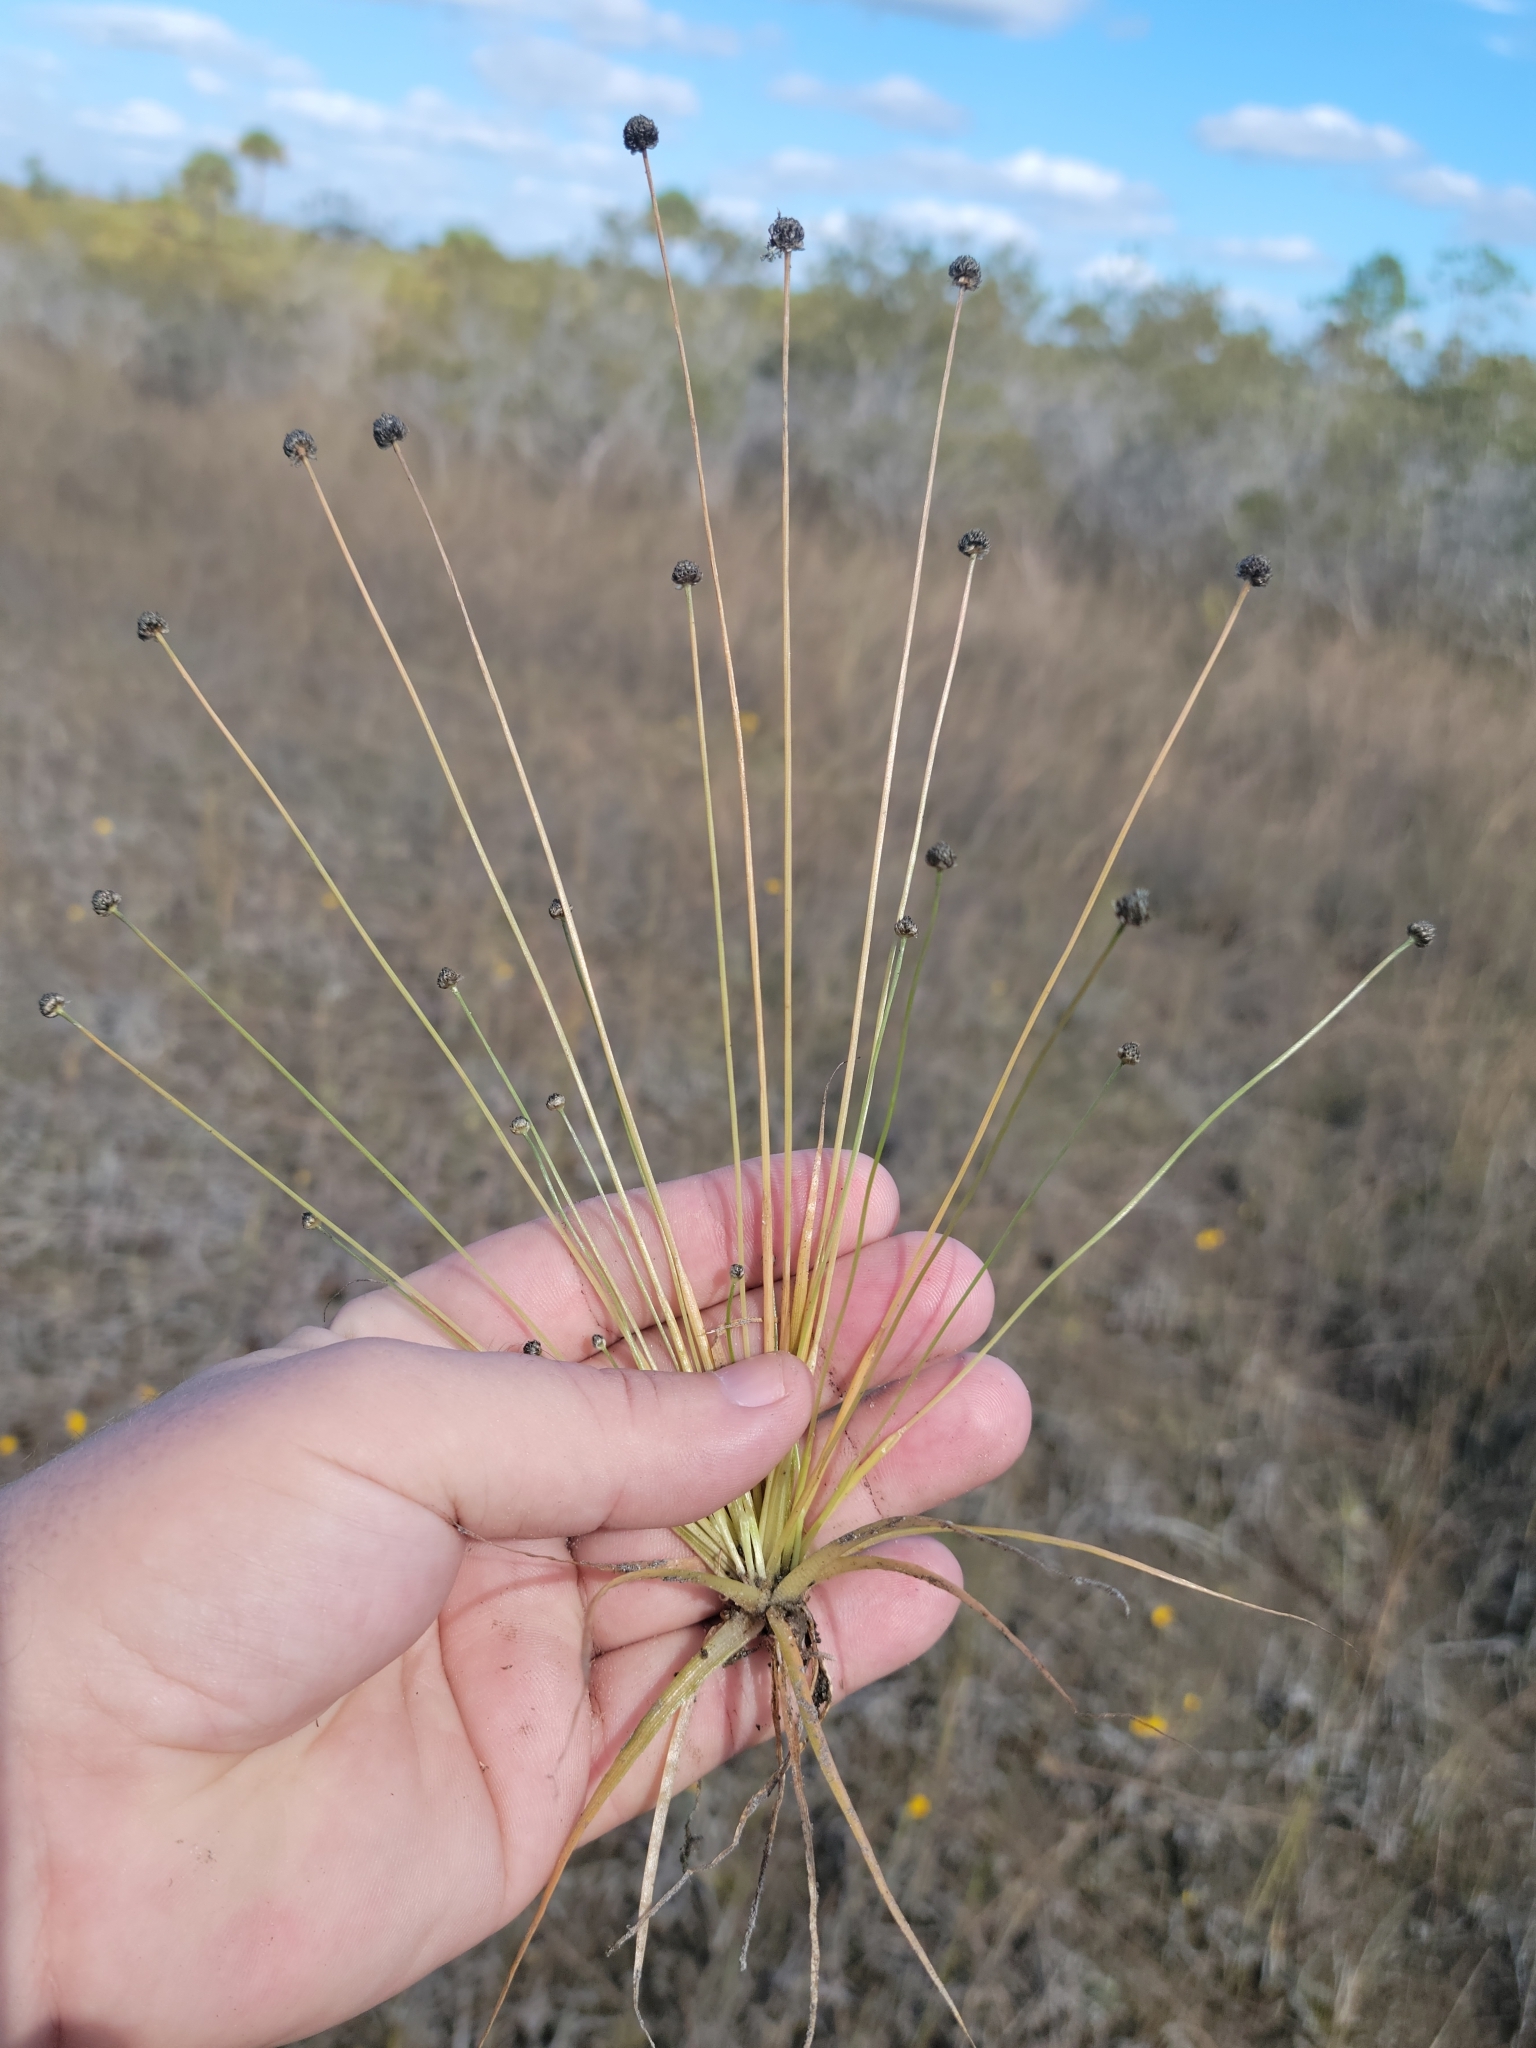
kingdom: Plantae
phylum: Tracheophyta
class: Liliopsida
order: Poales
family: Eriocaulaceae
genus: Eriocaulon
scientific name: Eriocaulon ravenelii
